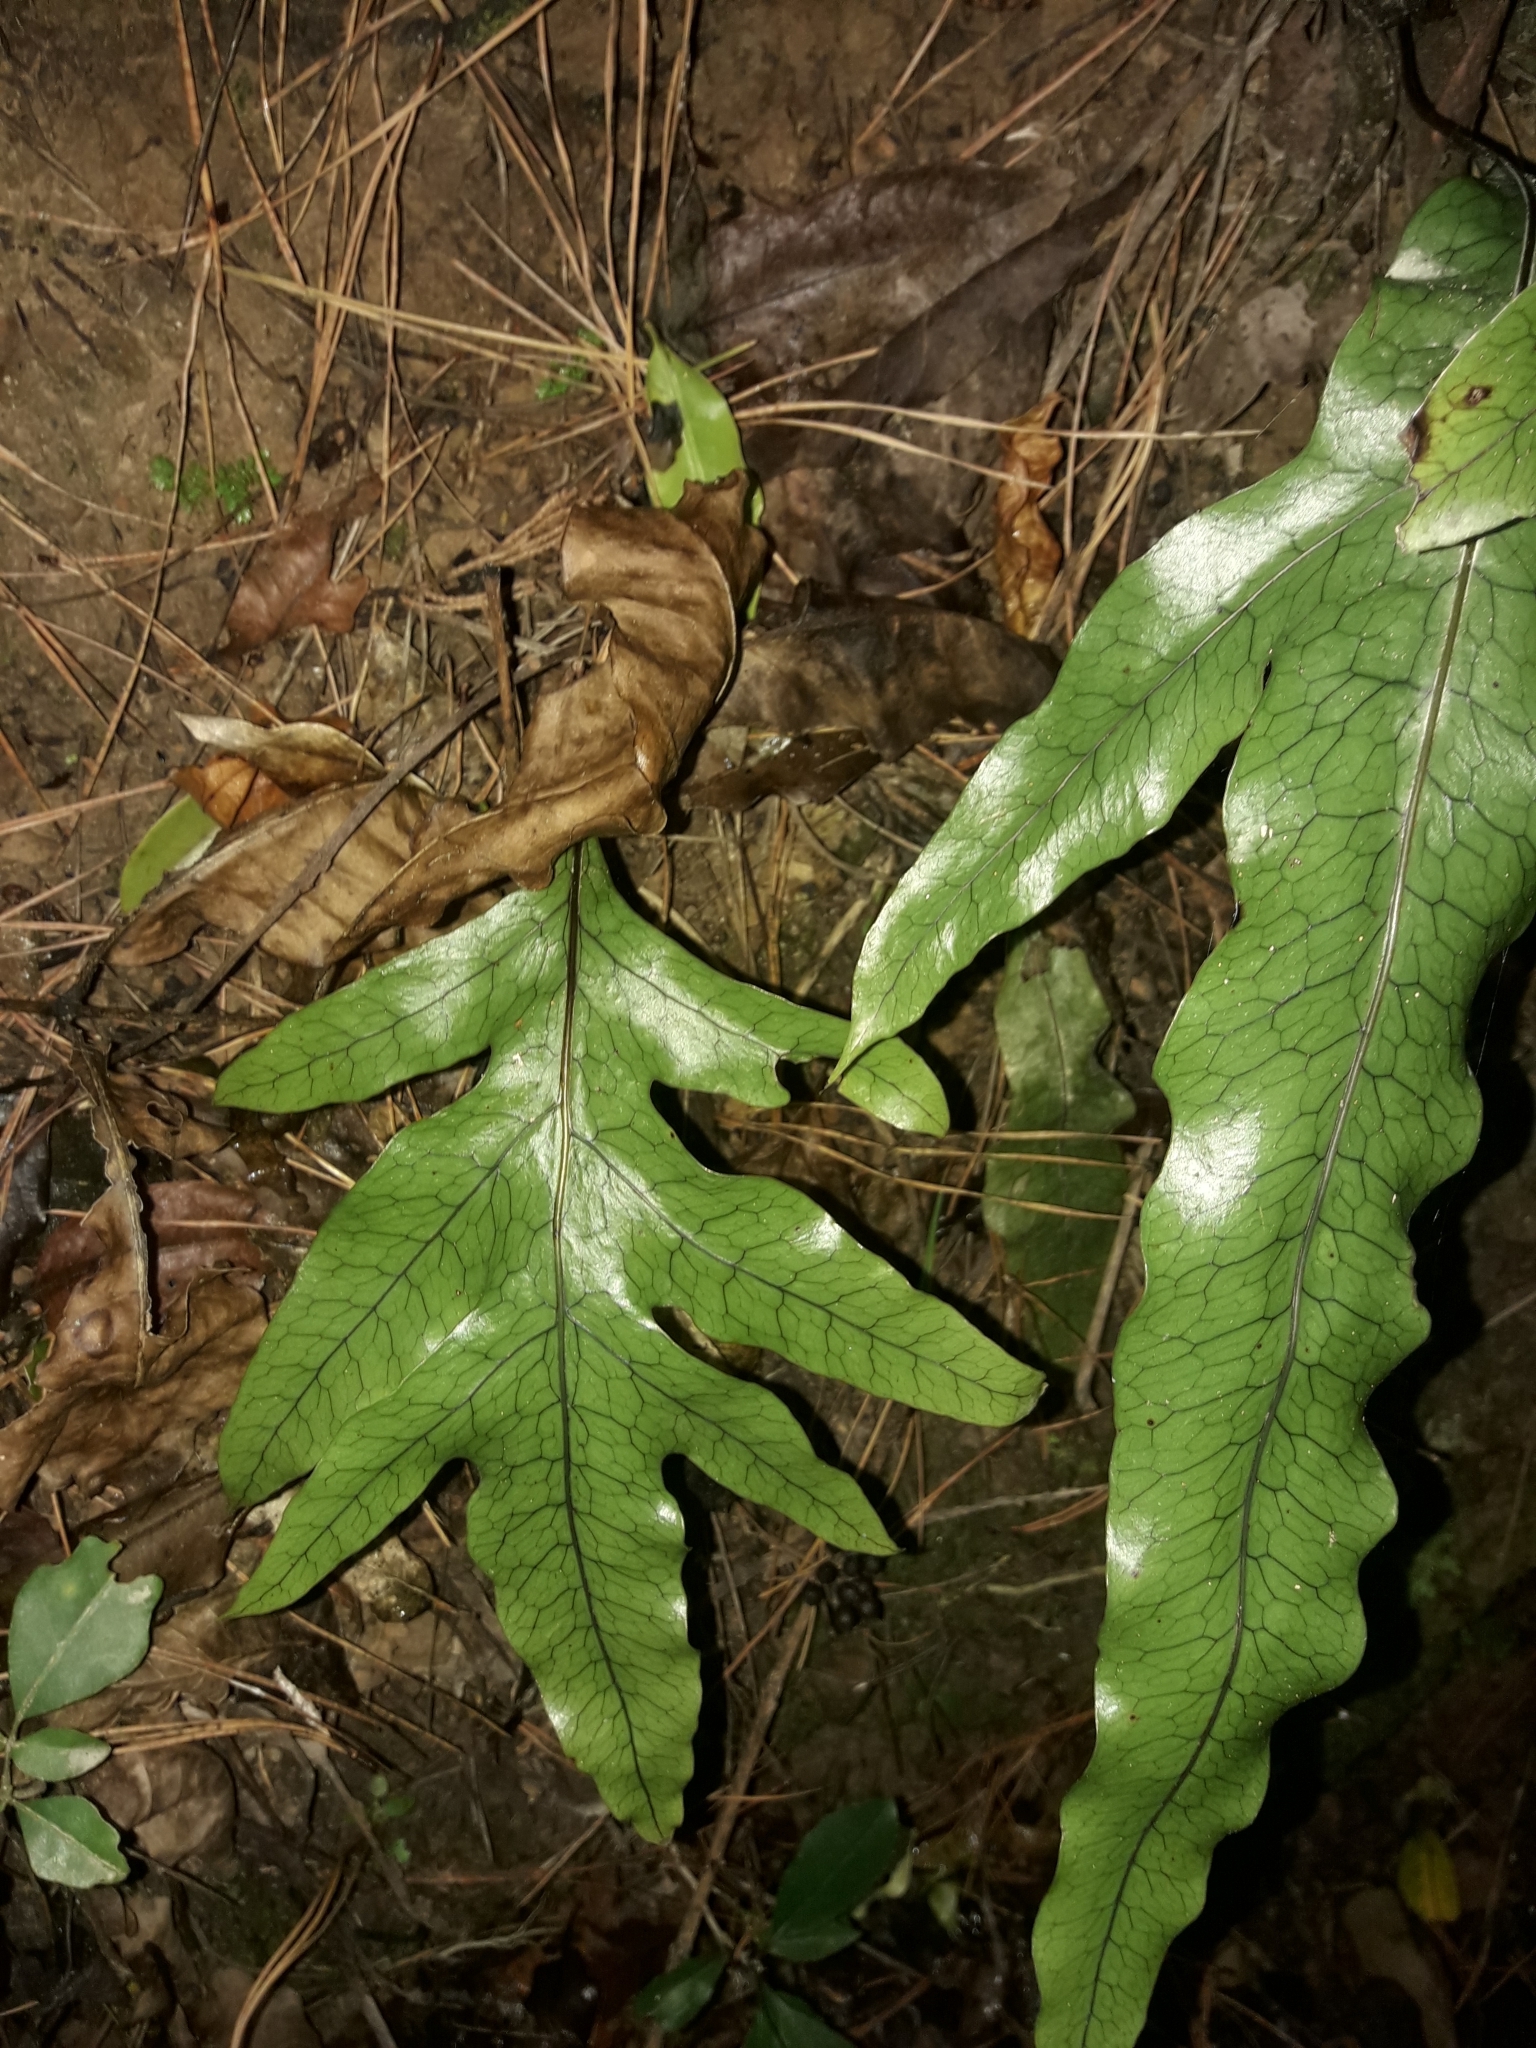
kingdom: Plantae
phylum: Tracheophyta
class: Polypodiopsida
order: Polypodiales
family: Polypodiaceae
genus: Lecanopteris
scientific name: Lecanopteris pustulata
